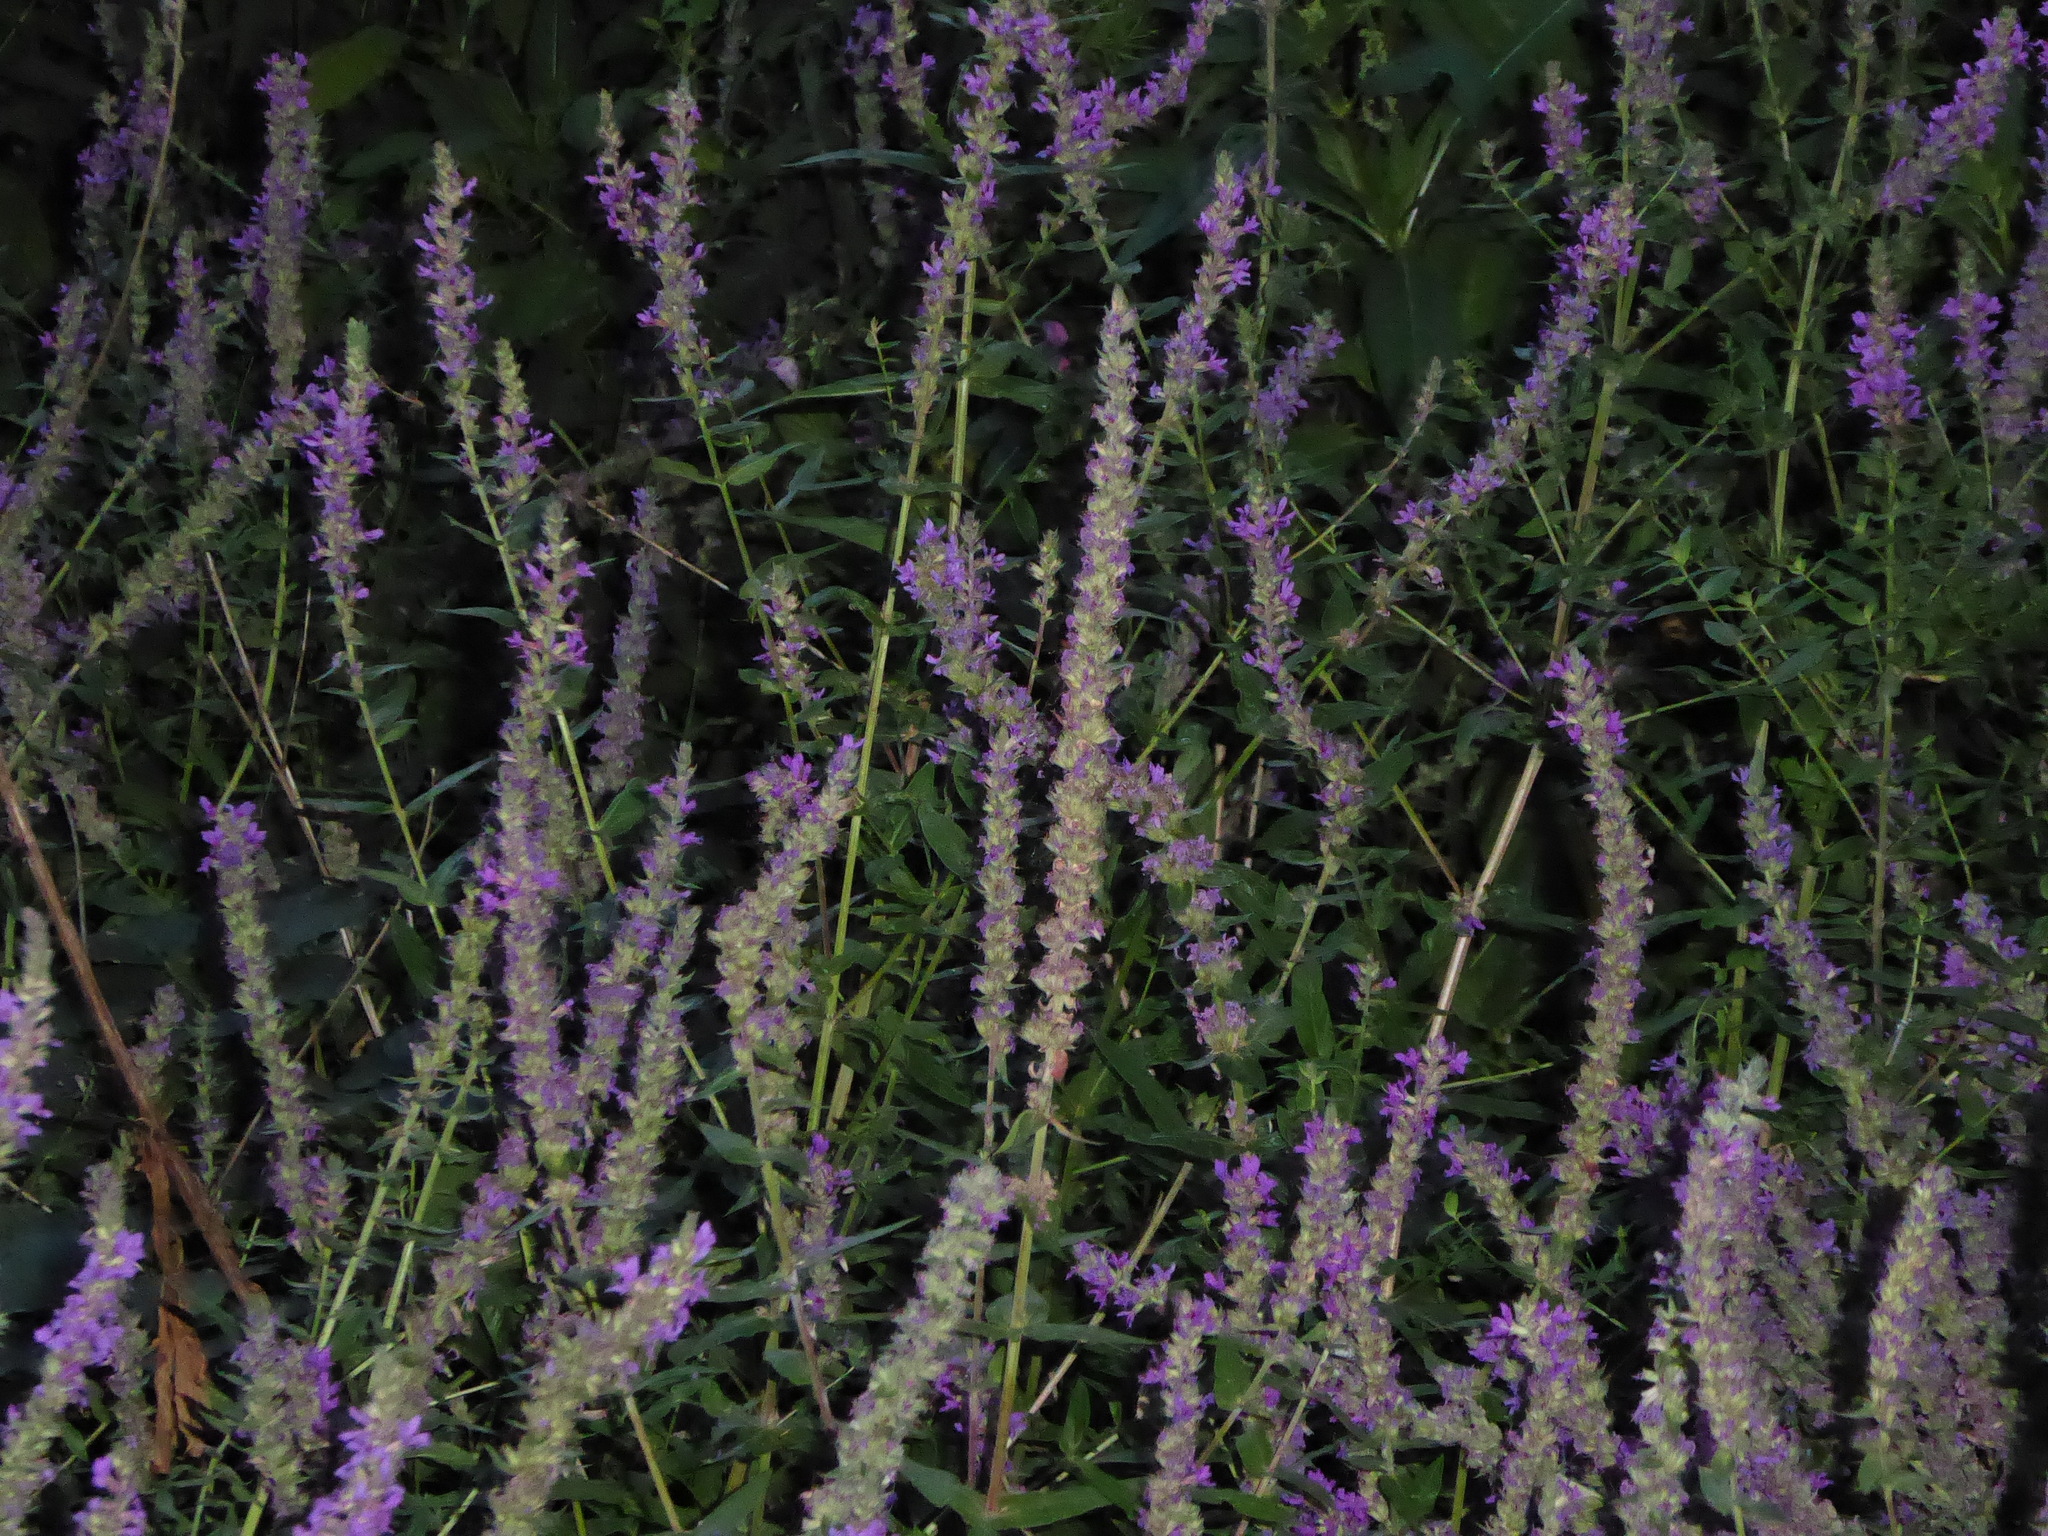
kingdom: Plantae
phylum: Tracheophyta
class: Magnoliopsida
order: Myrtales
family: Lythraceae
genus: Lythrum
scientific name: Lythrum salicaria
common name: Purple loosestrife
